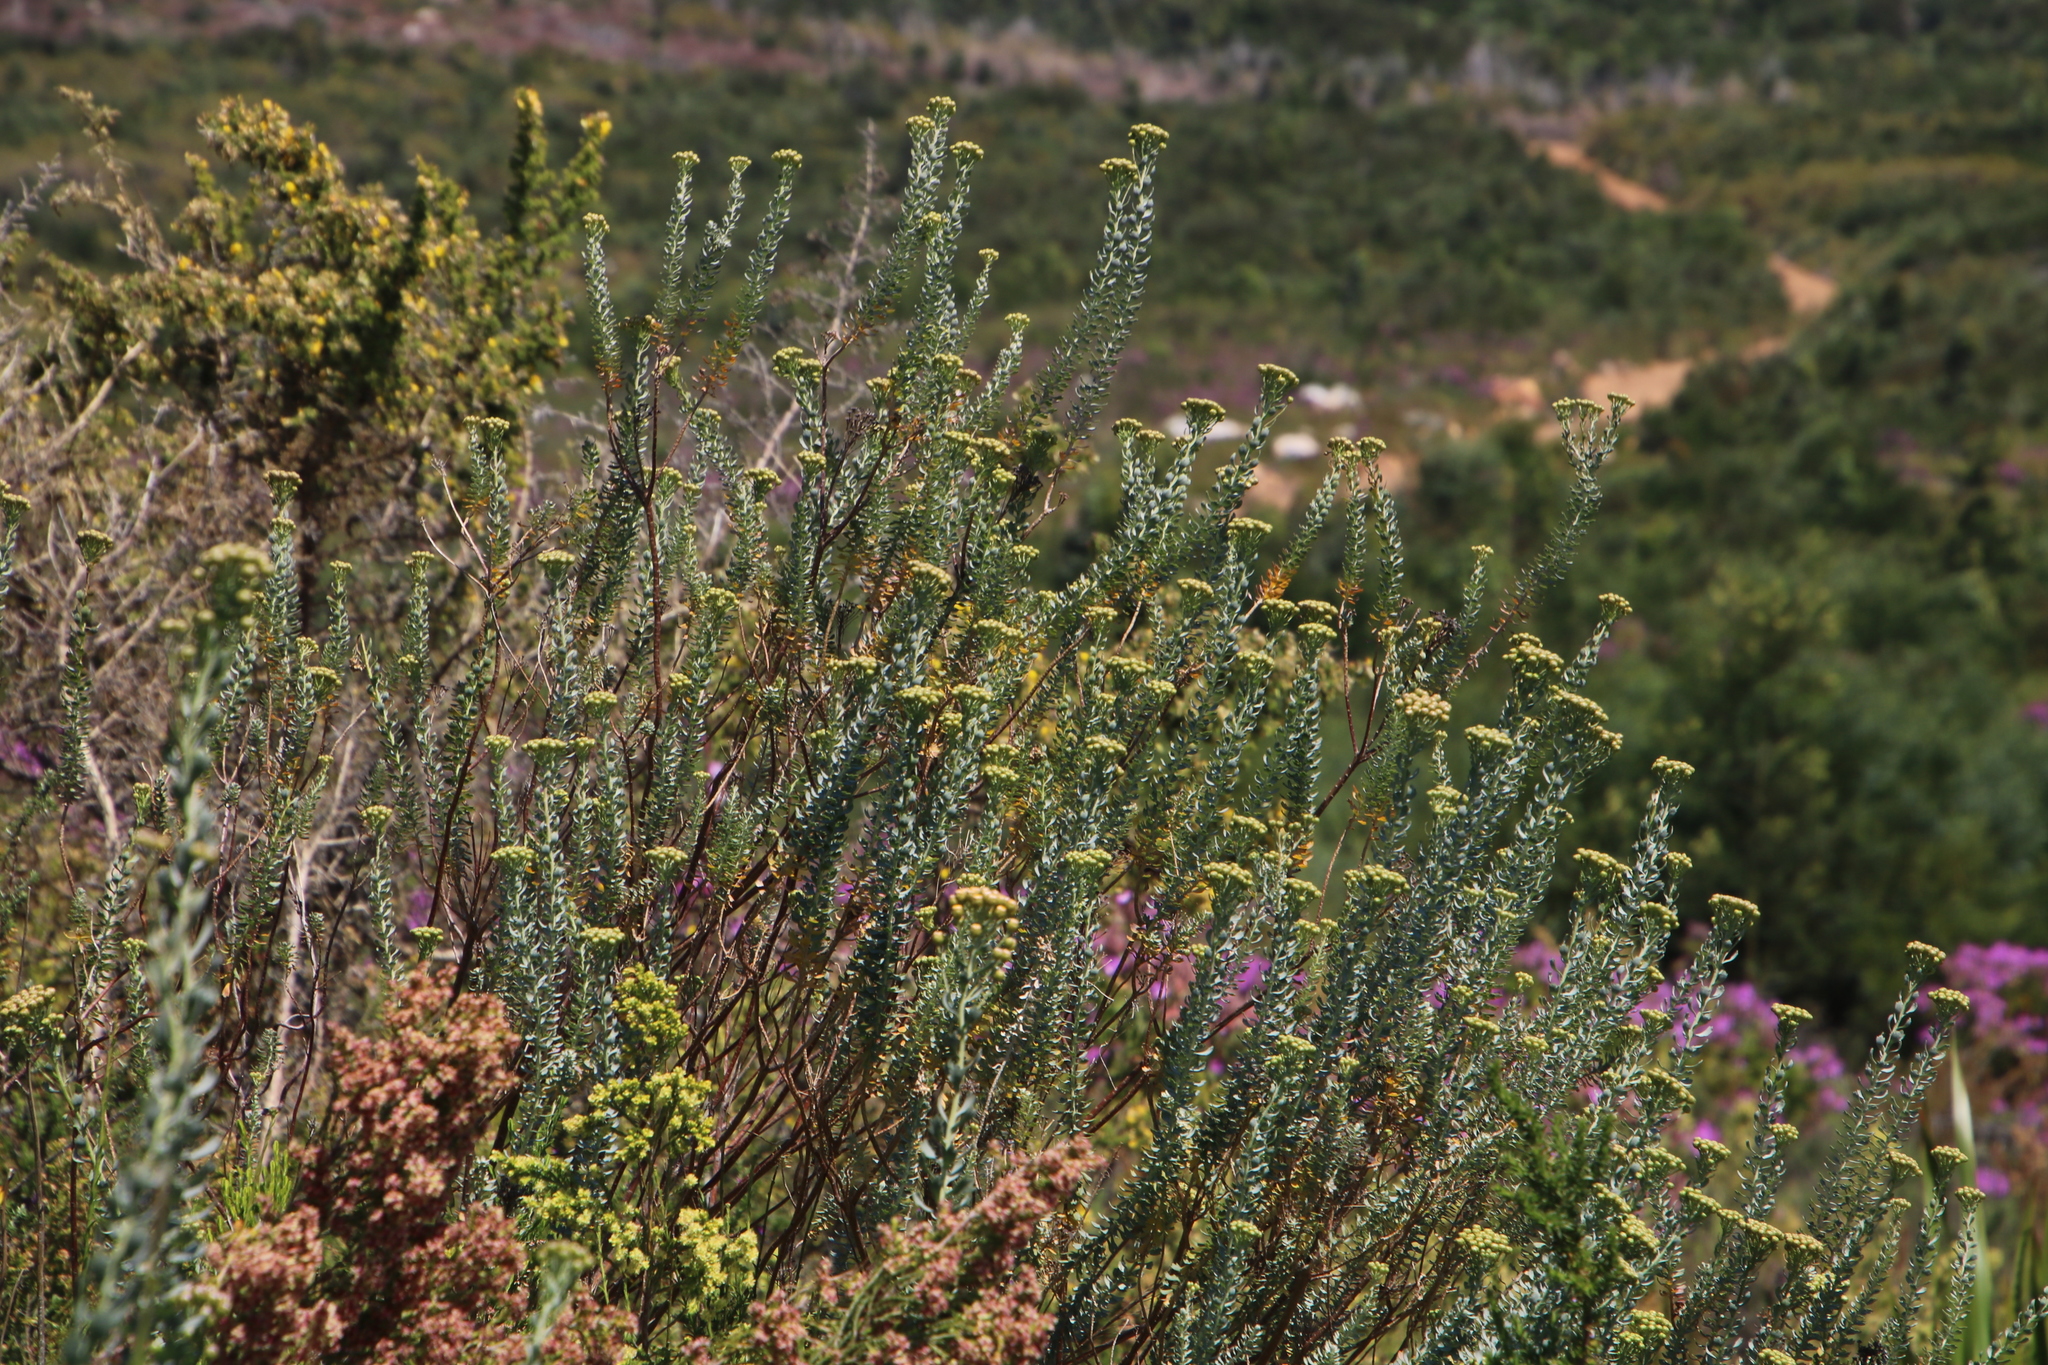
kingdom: Plantae
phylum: Tracheophyta
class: Magnoliopsida
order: Asterales
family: Asteraceae
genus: Athanasia
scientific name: Athanasia trifurcata
